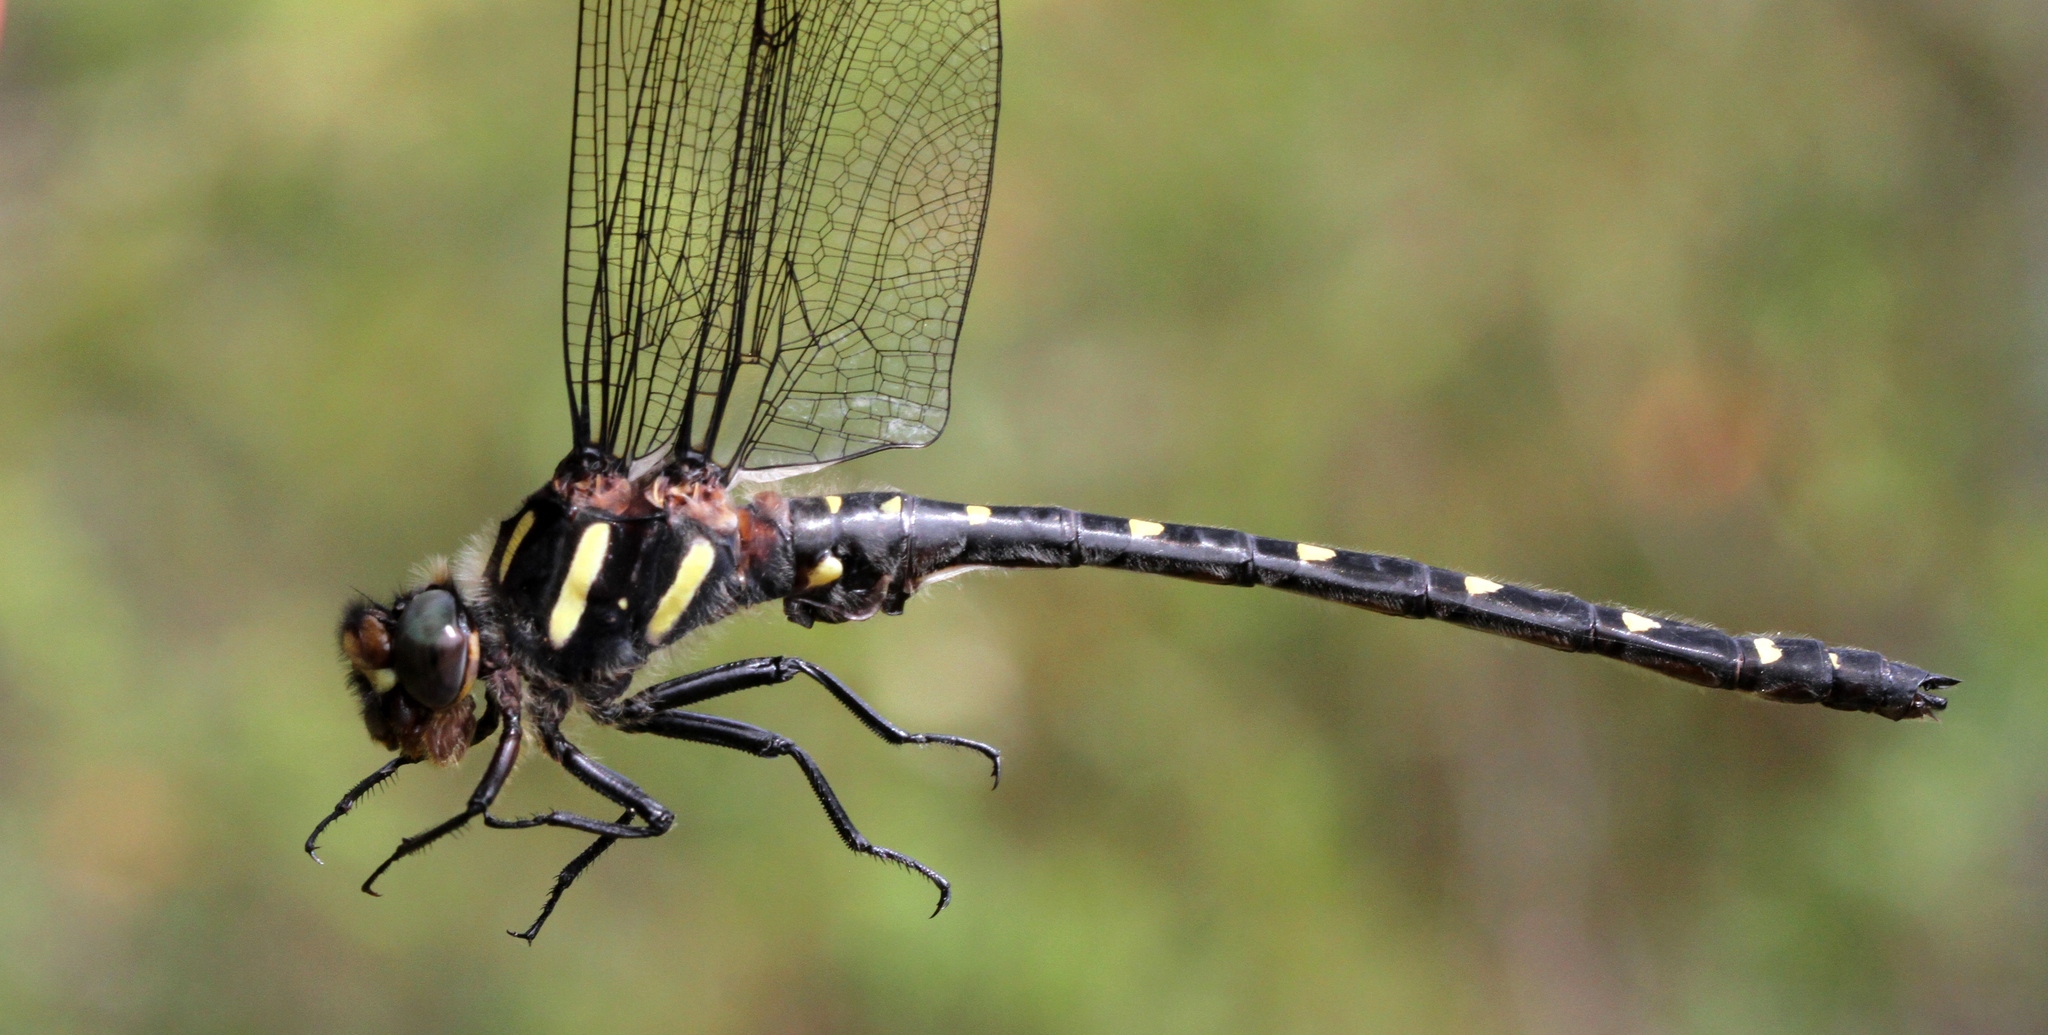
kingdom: Animalia
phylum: Arthropoda
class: Insecta
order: Odonata
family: Cordulegastridae
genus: Cordulegaster
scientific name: Cordulegaster maculata
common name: Twin-spotted spiketail
